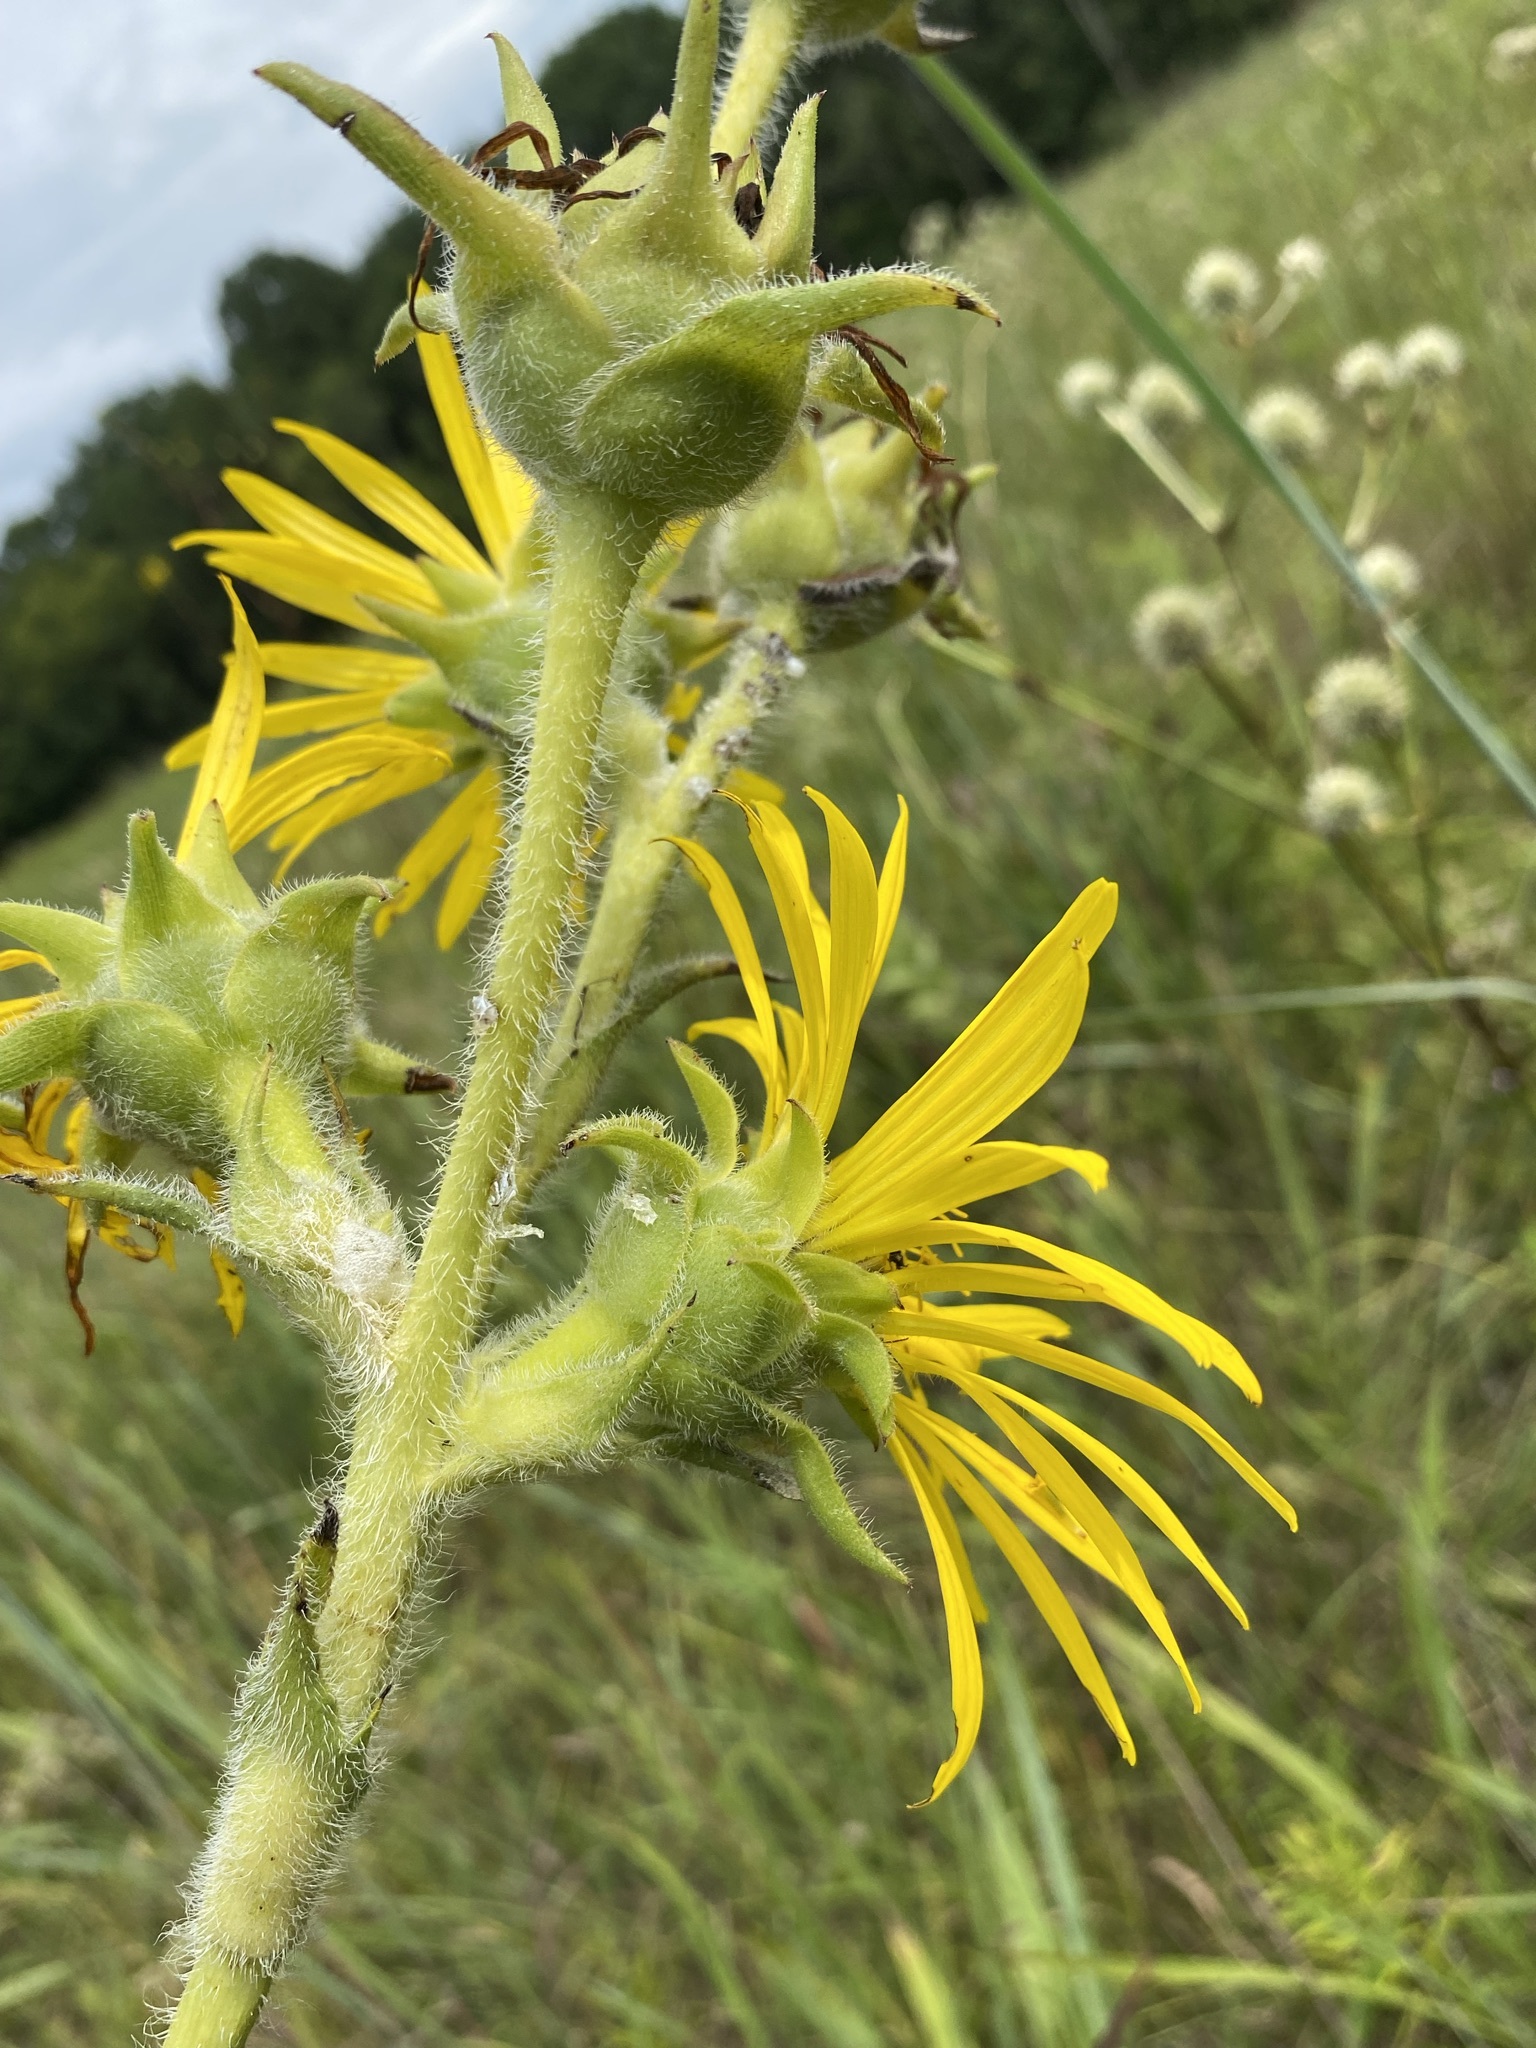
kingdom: Plantae
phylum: Tracheophyta
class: Magnoliopsida
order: Asterales
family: Asteraceae
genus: Silphium
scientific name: Silphium laciniatum
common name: Polarplant
